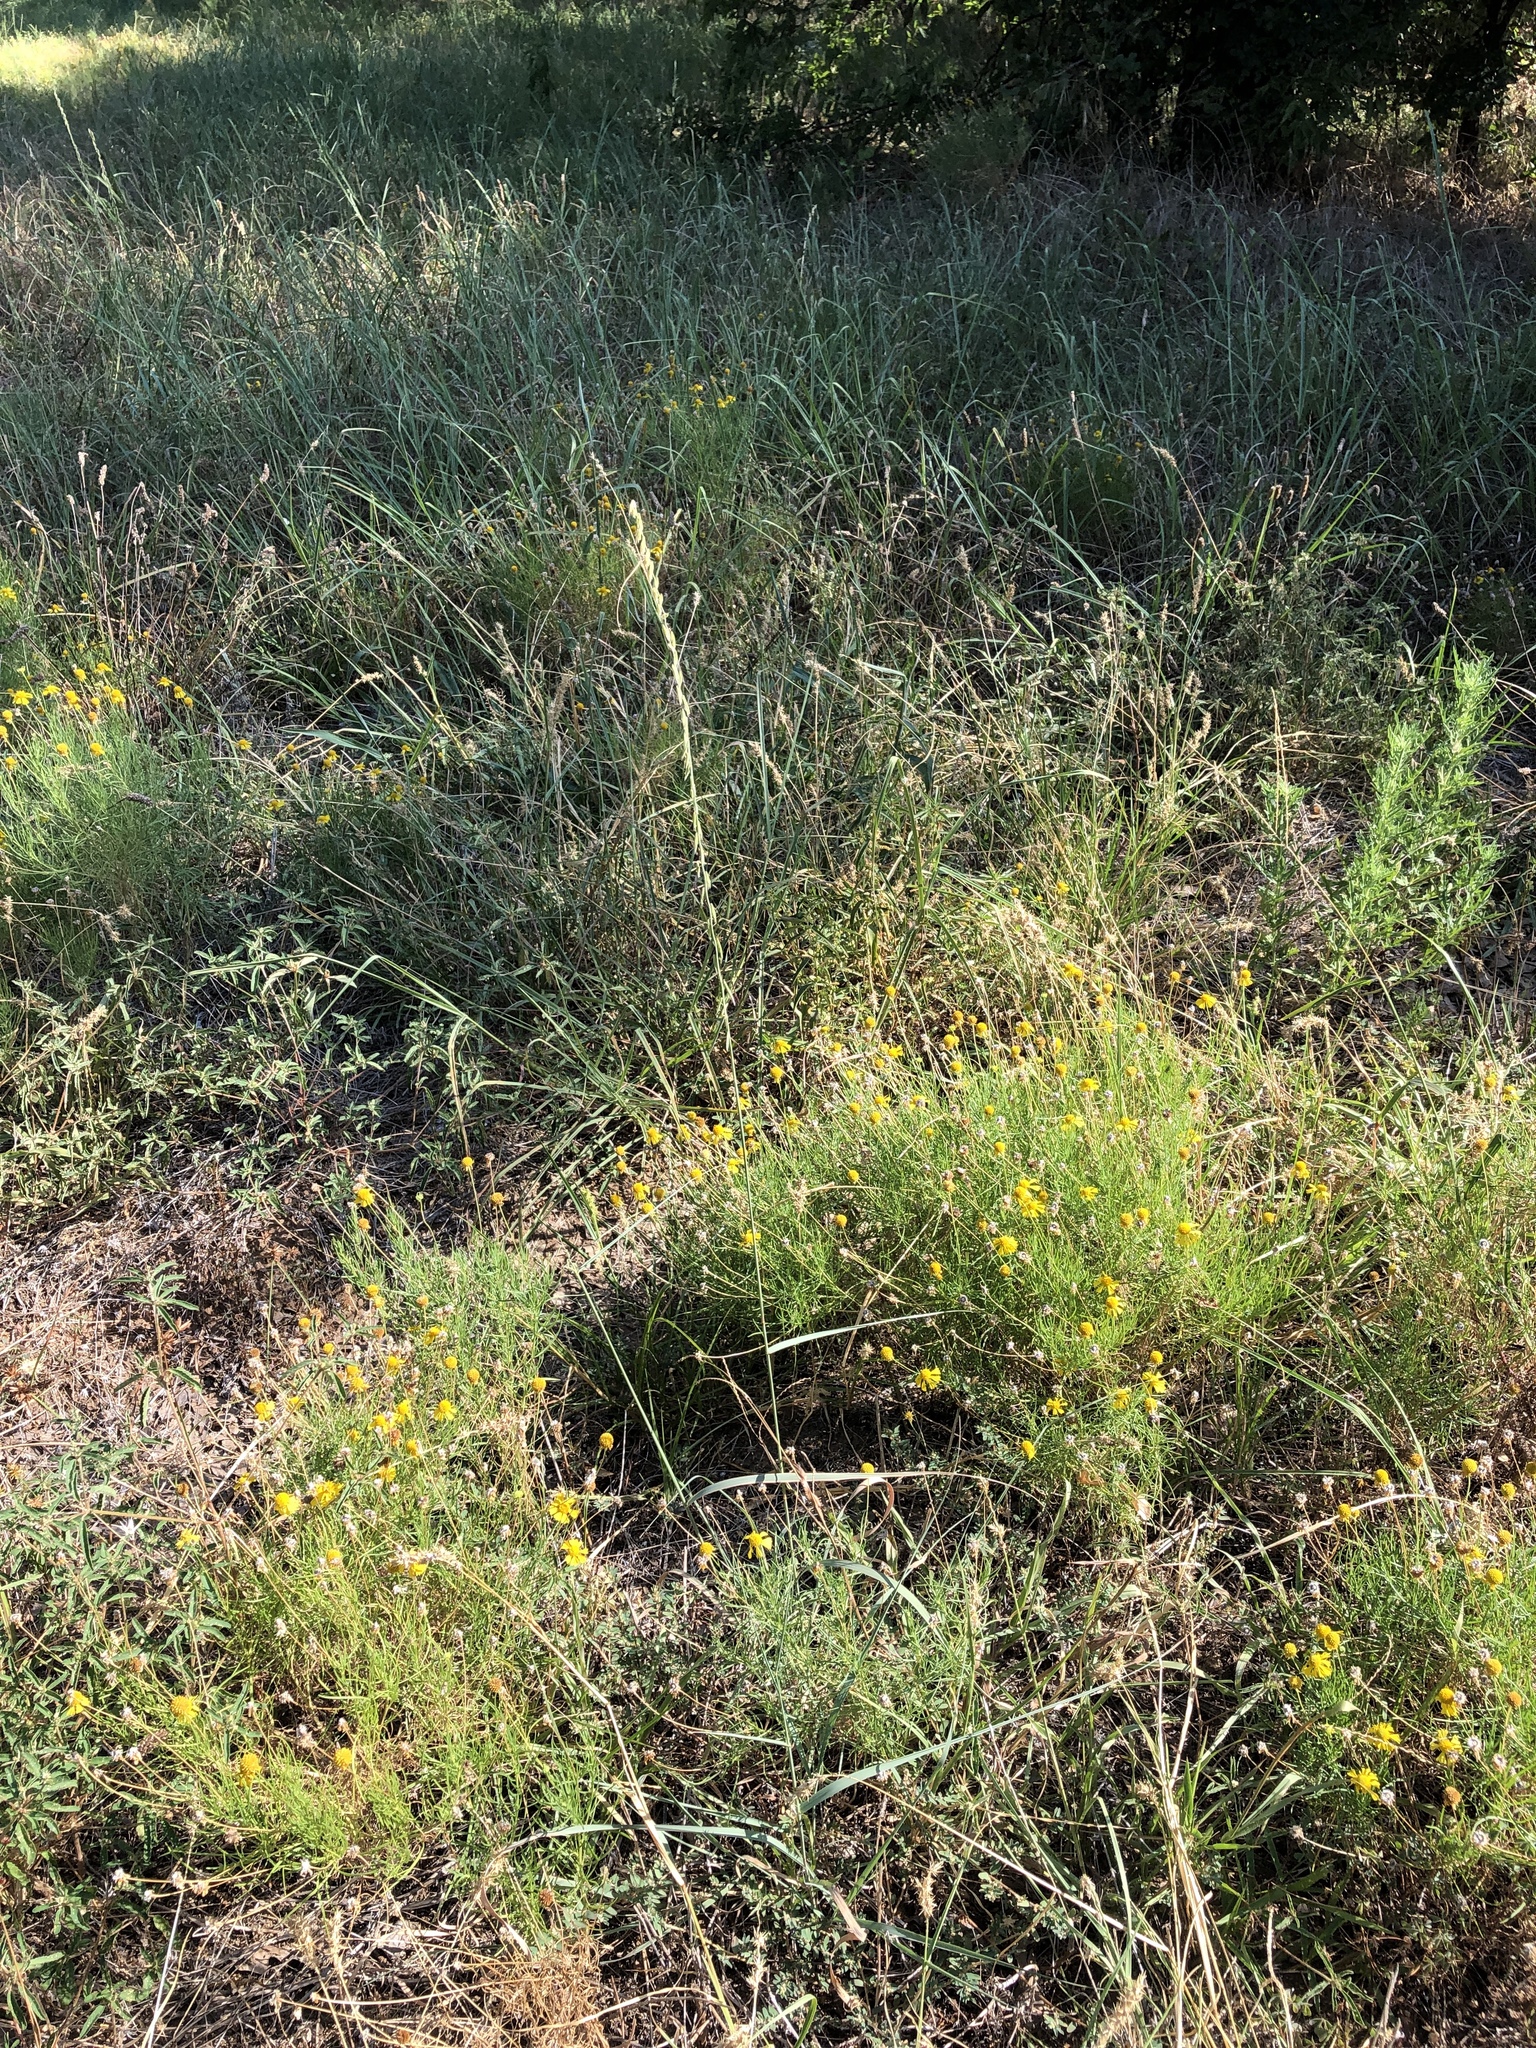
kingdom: Plantae
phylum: Tracheophyta
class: Liliopsida
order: Poales
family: Poaceae
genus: Bouteloua
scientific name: Bouteloua curtipendula
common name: Side-oats grama
